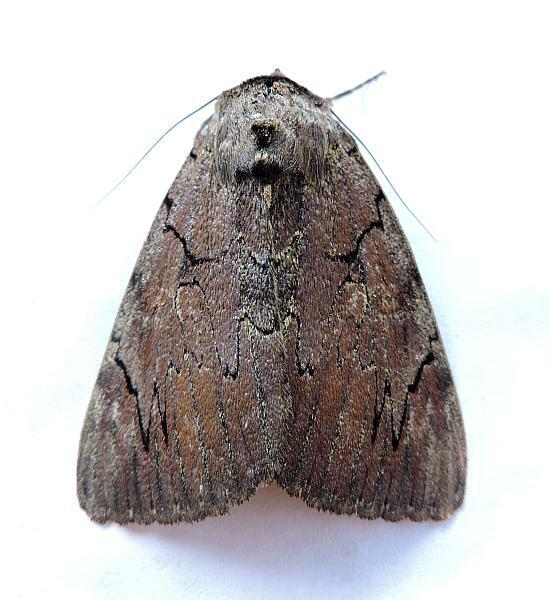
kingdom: Animalia
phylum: Arthropoda
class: Insecta
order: Lepidoptera
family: Erebidae
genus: Catocala
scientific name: Catocala cara
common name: Darling underwing
